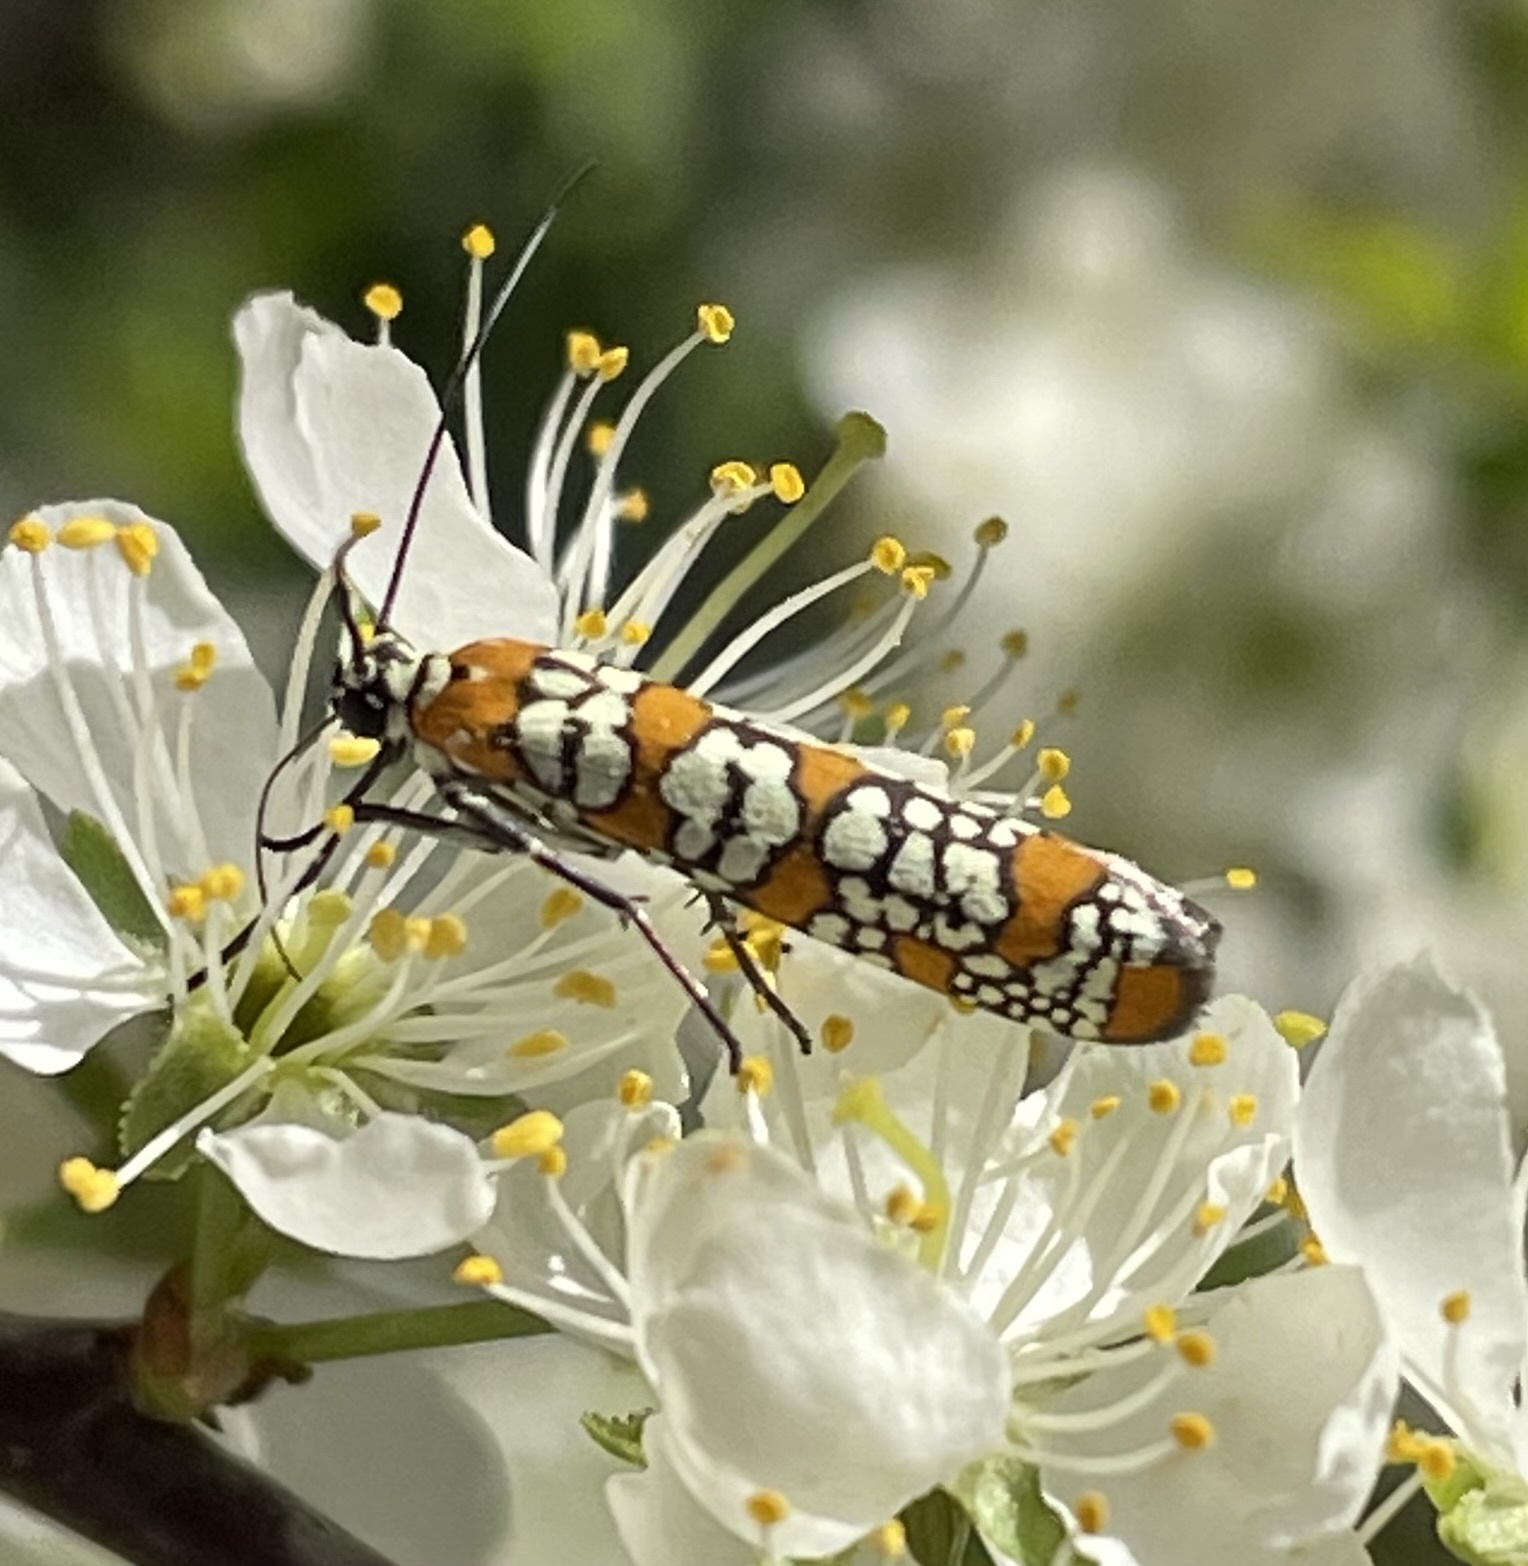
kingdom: Animalia
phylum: Arthropoda
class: Insecta
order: Lepidoptera
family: Attevidae
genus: Atteva
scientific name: Atteva punctella
